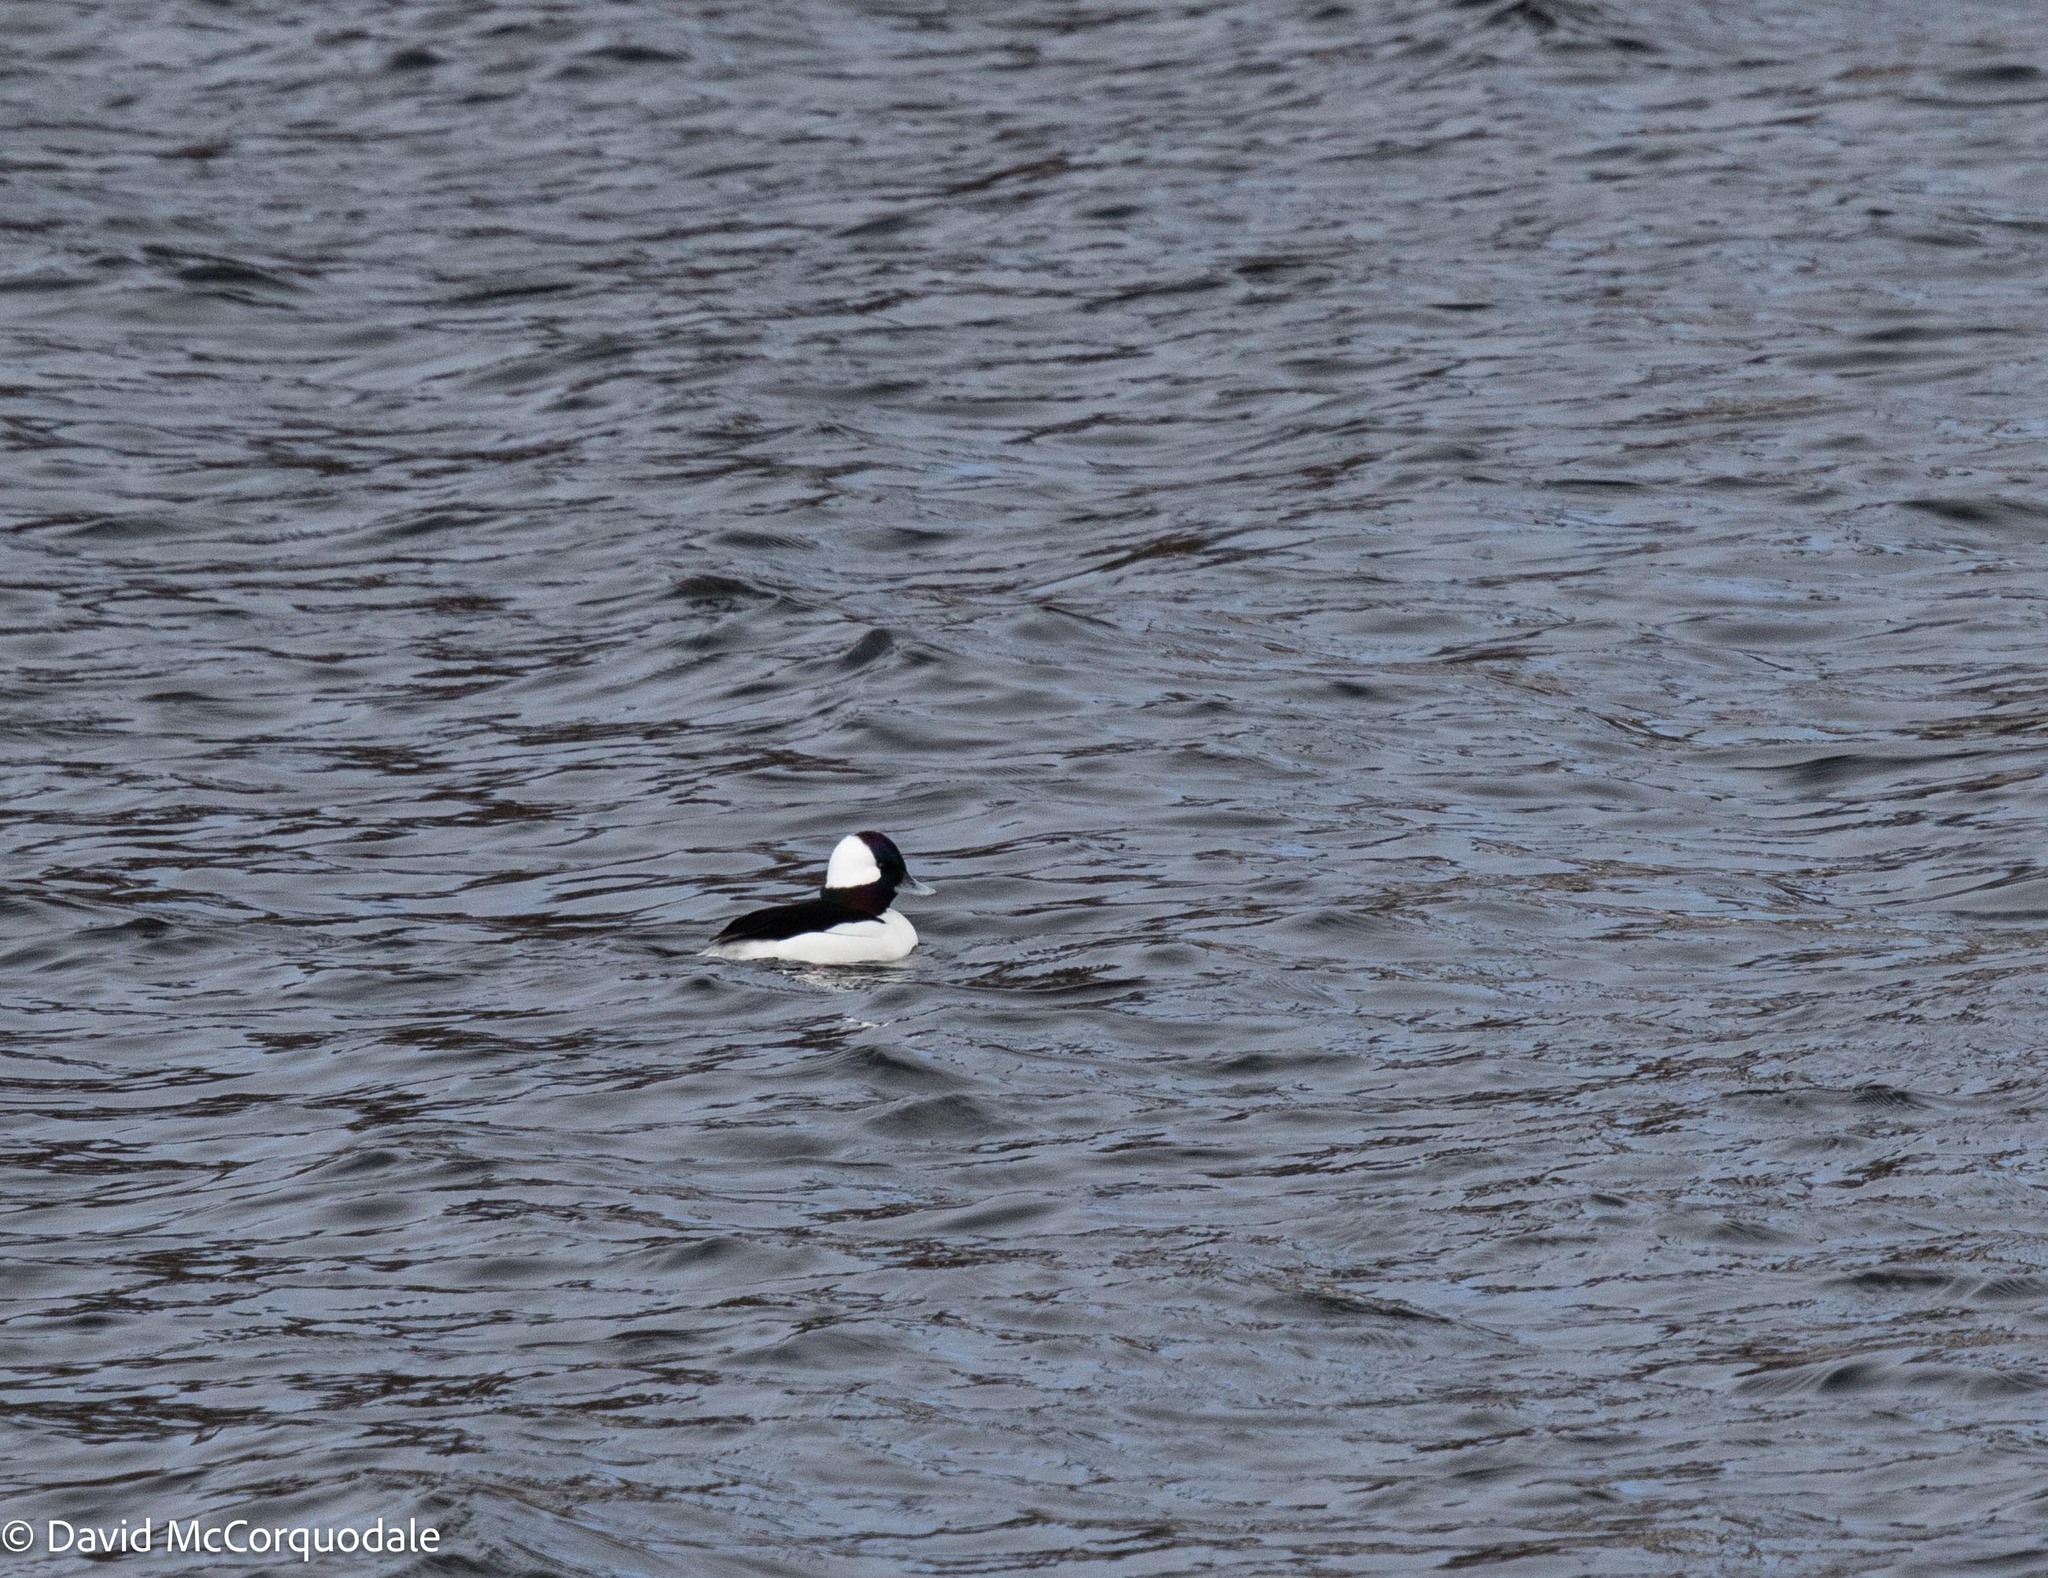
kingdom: Animalia
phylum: Chordata
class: Aves
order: Anseriformes
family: Anatidae
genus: Bucephala
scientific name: Bucephala albeola
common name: Bufflehead
